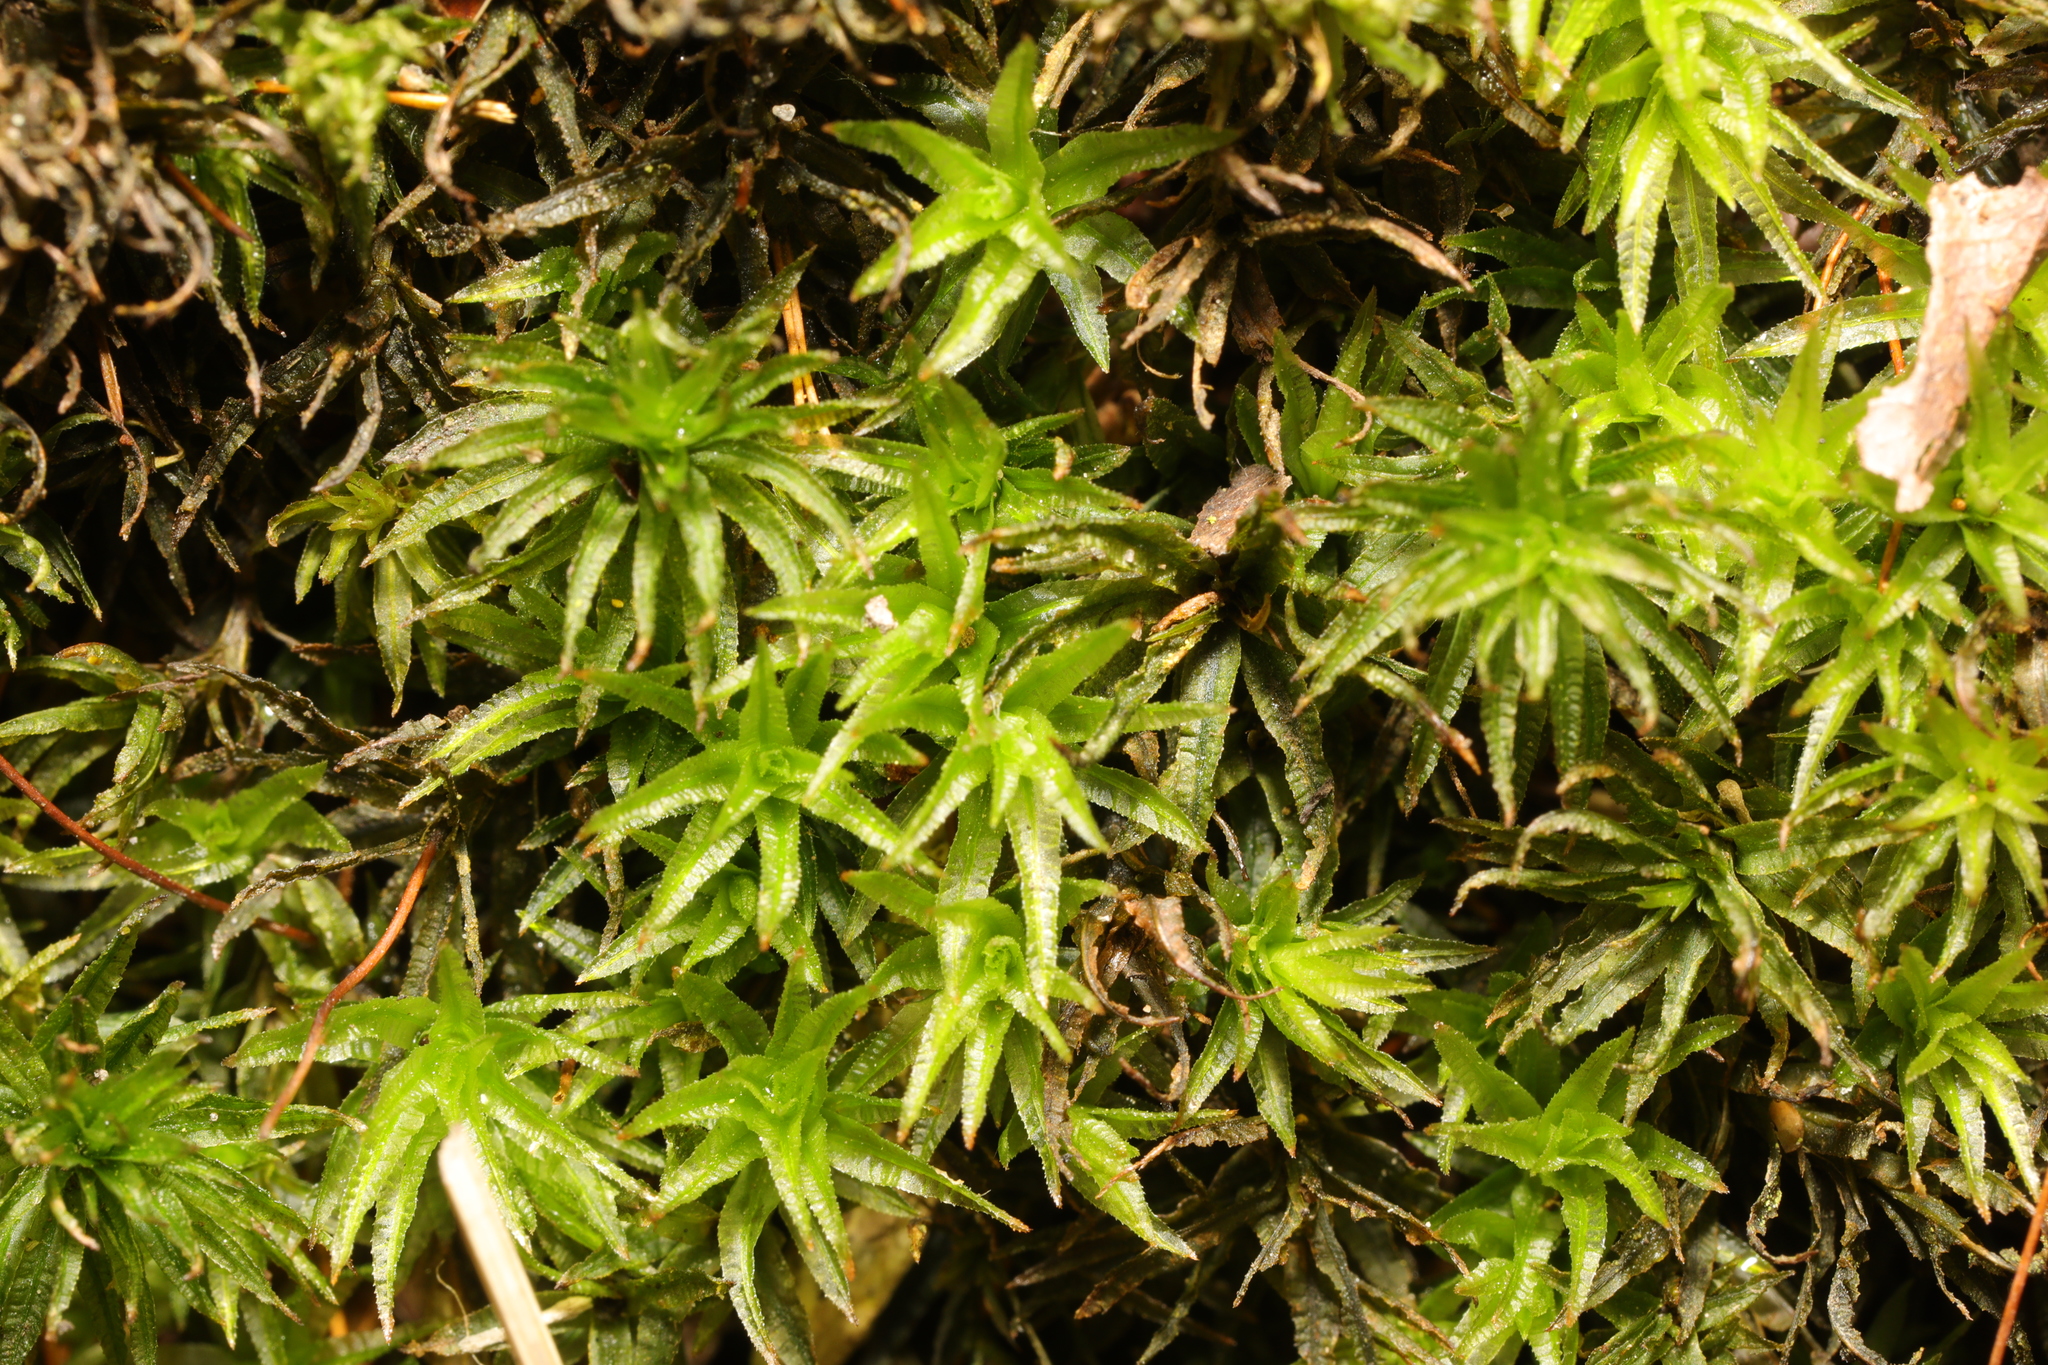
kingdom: Plantae
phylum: Bryophyta
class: Polytrichopsida
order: Polytrichales
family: Polytrichaceae
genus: Atrichum
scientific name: Atrichum undulatum
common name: Common smoothcap
